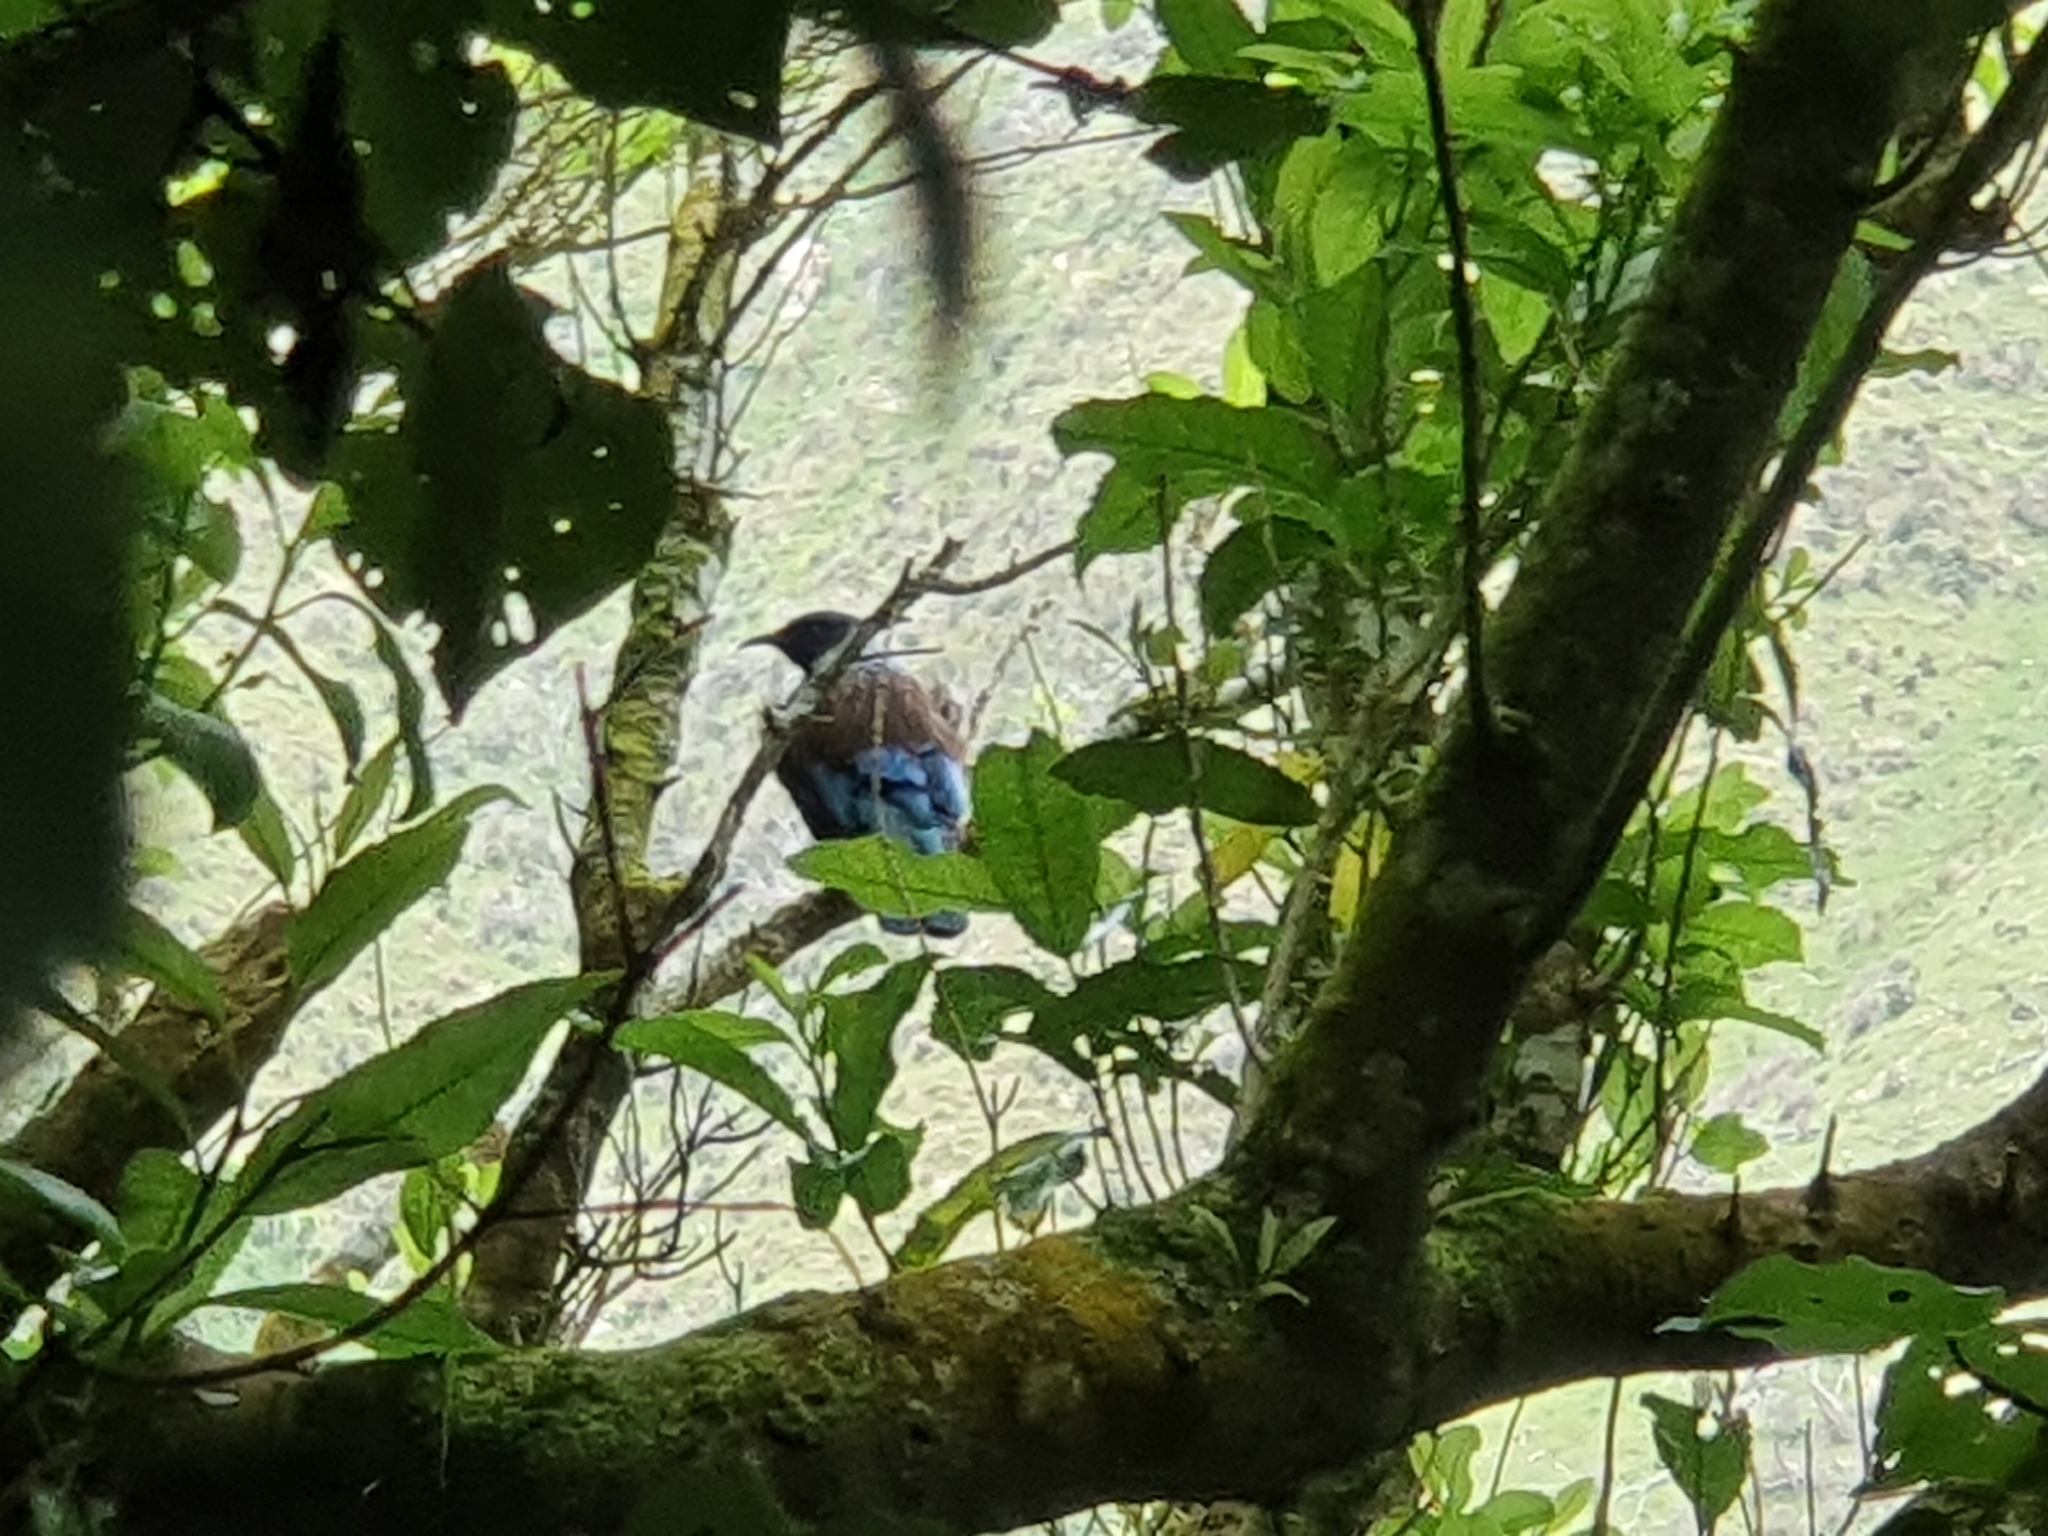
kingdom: Animalia
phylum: Chordata
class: Aves
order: Passeriformes
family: Meliphagidae
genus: Prosthemadera
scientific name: Prosthemadera novaeseelandiae
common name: Tui
